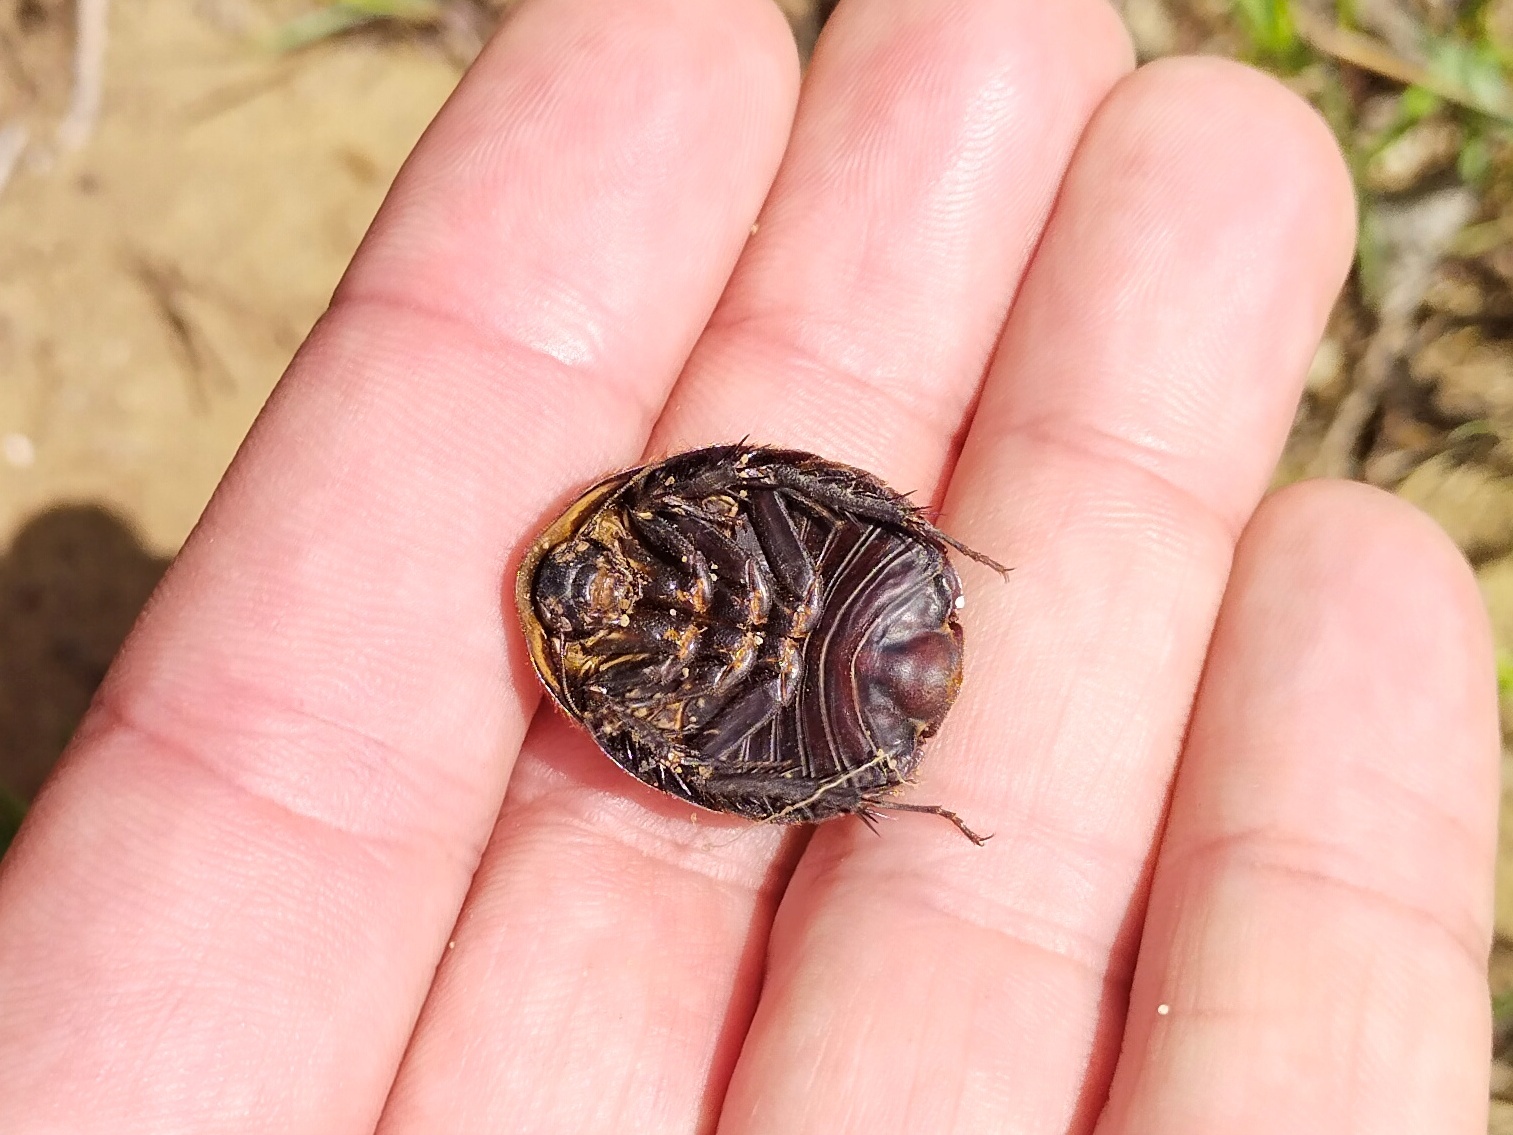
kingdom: Animalia
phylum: Arthropoda
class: Insecta
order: Blattodea
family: Corydiidae
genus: Polyphaga
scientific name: Polyphaga aegyptiaca
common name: Egyptian cockroach
